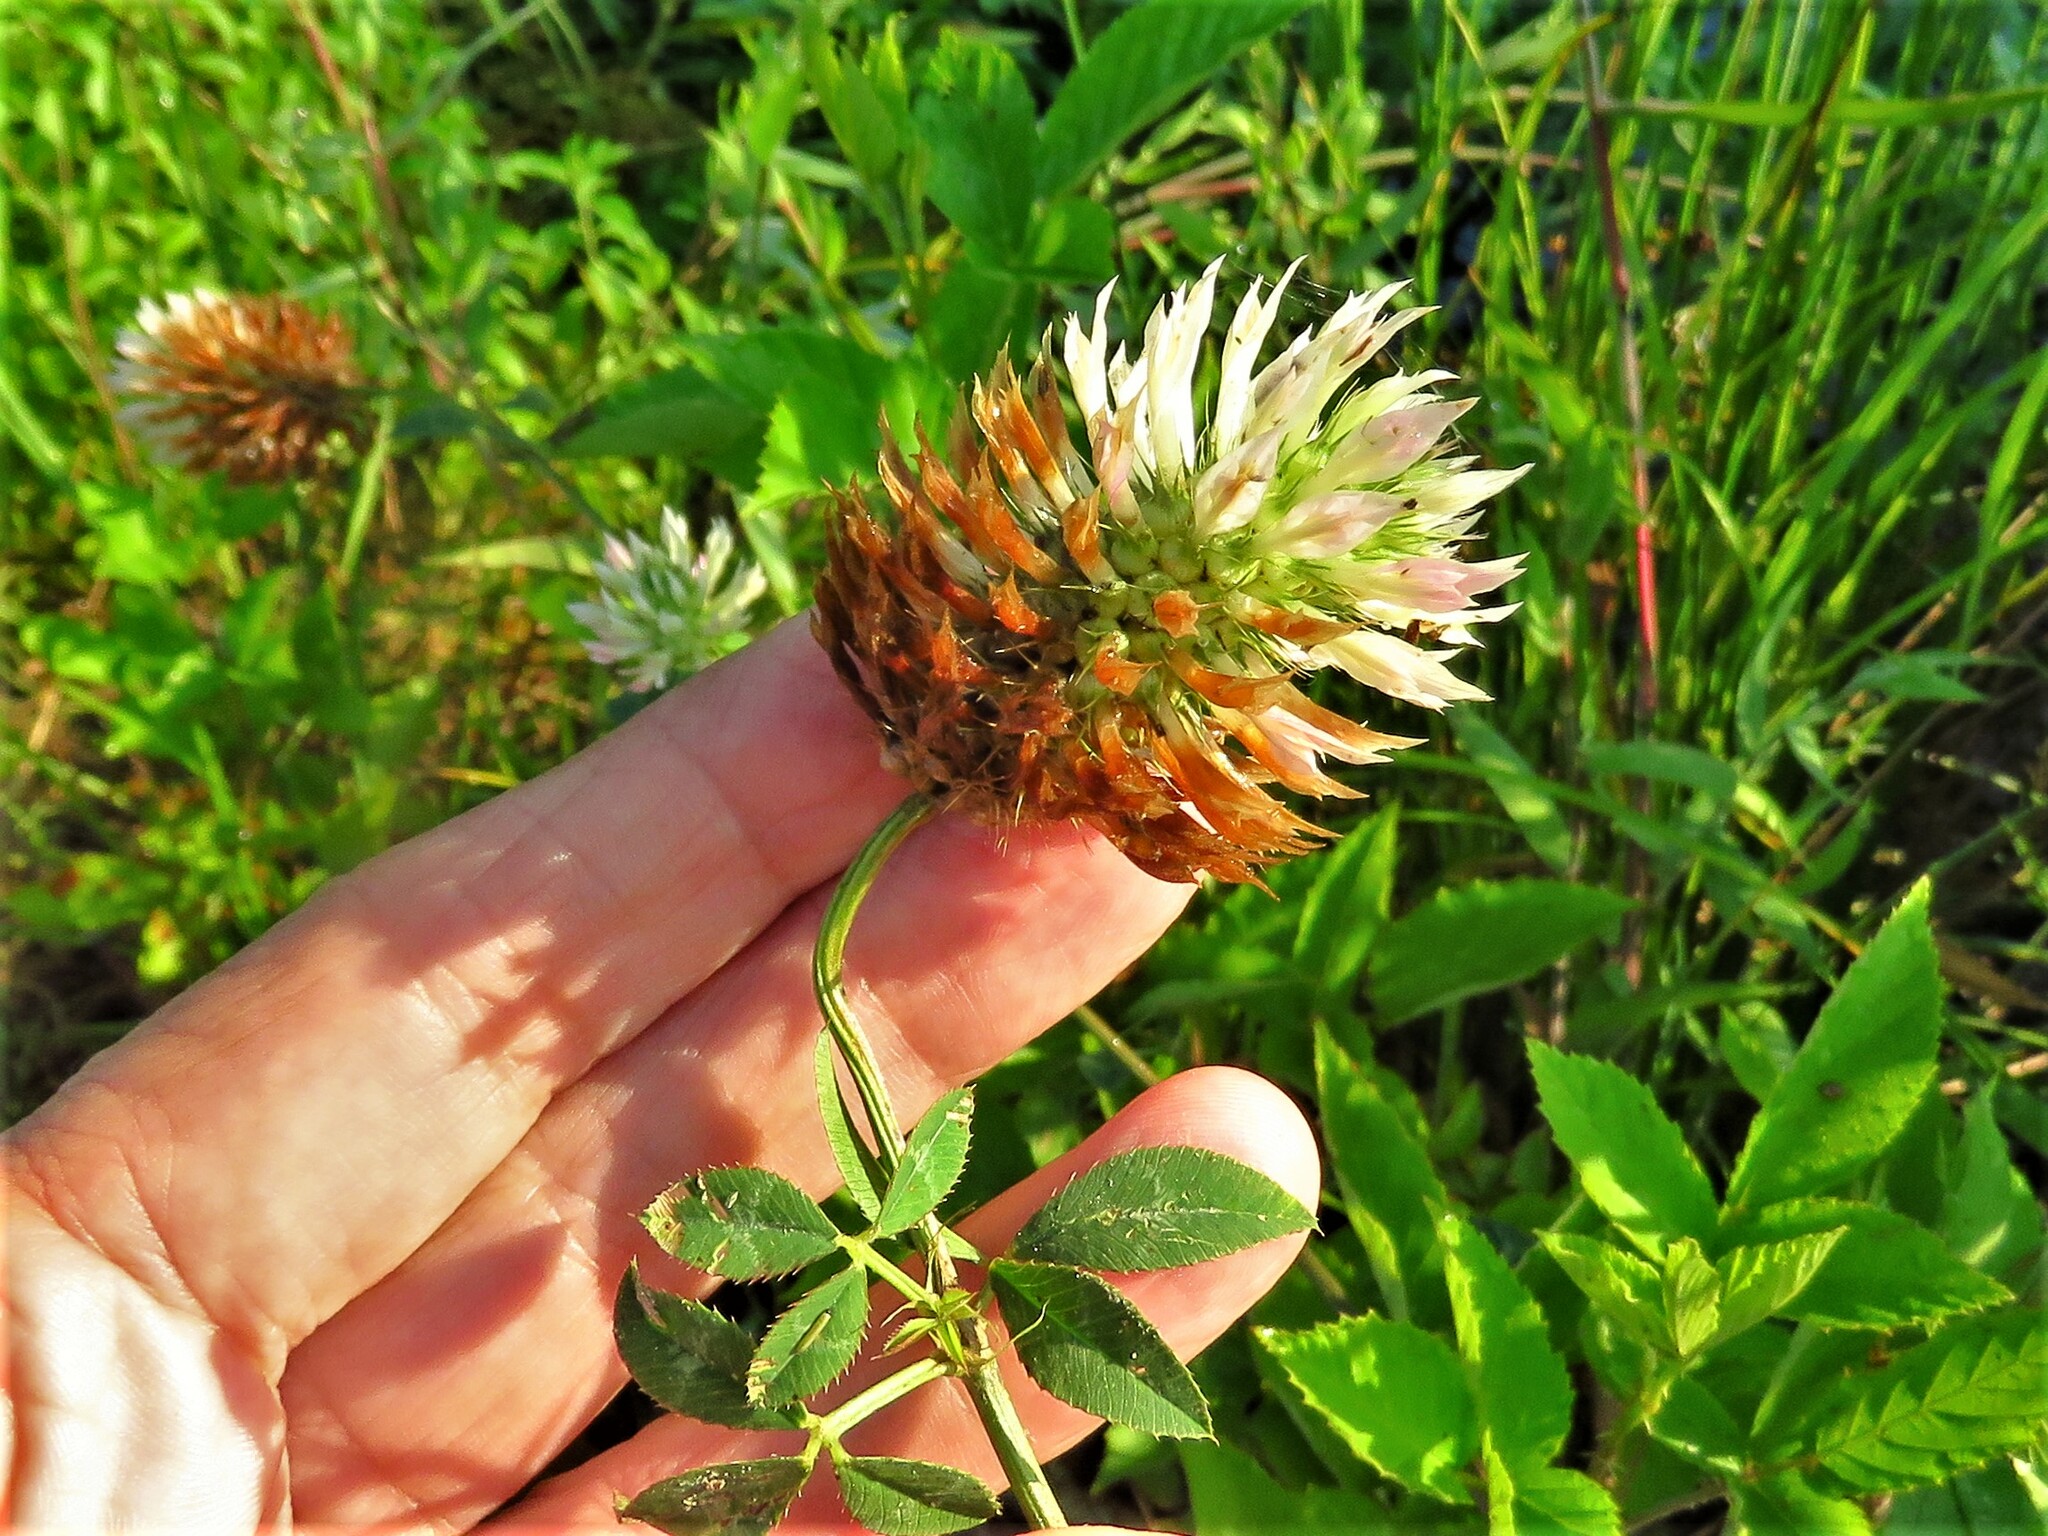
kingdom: Plantae
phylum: Tracheophyta
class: Magnoliopsida
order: Fabales
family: Fabaceae
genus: Trifolium
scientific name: Trifolium vesiculosum
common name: Arrowleaf clover
